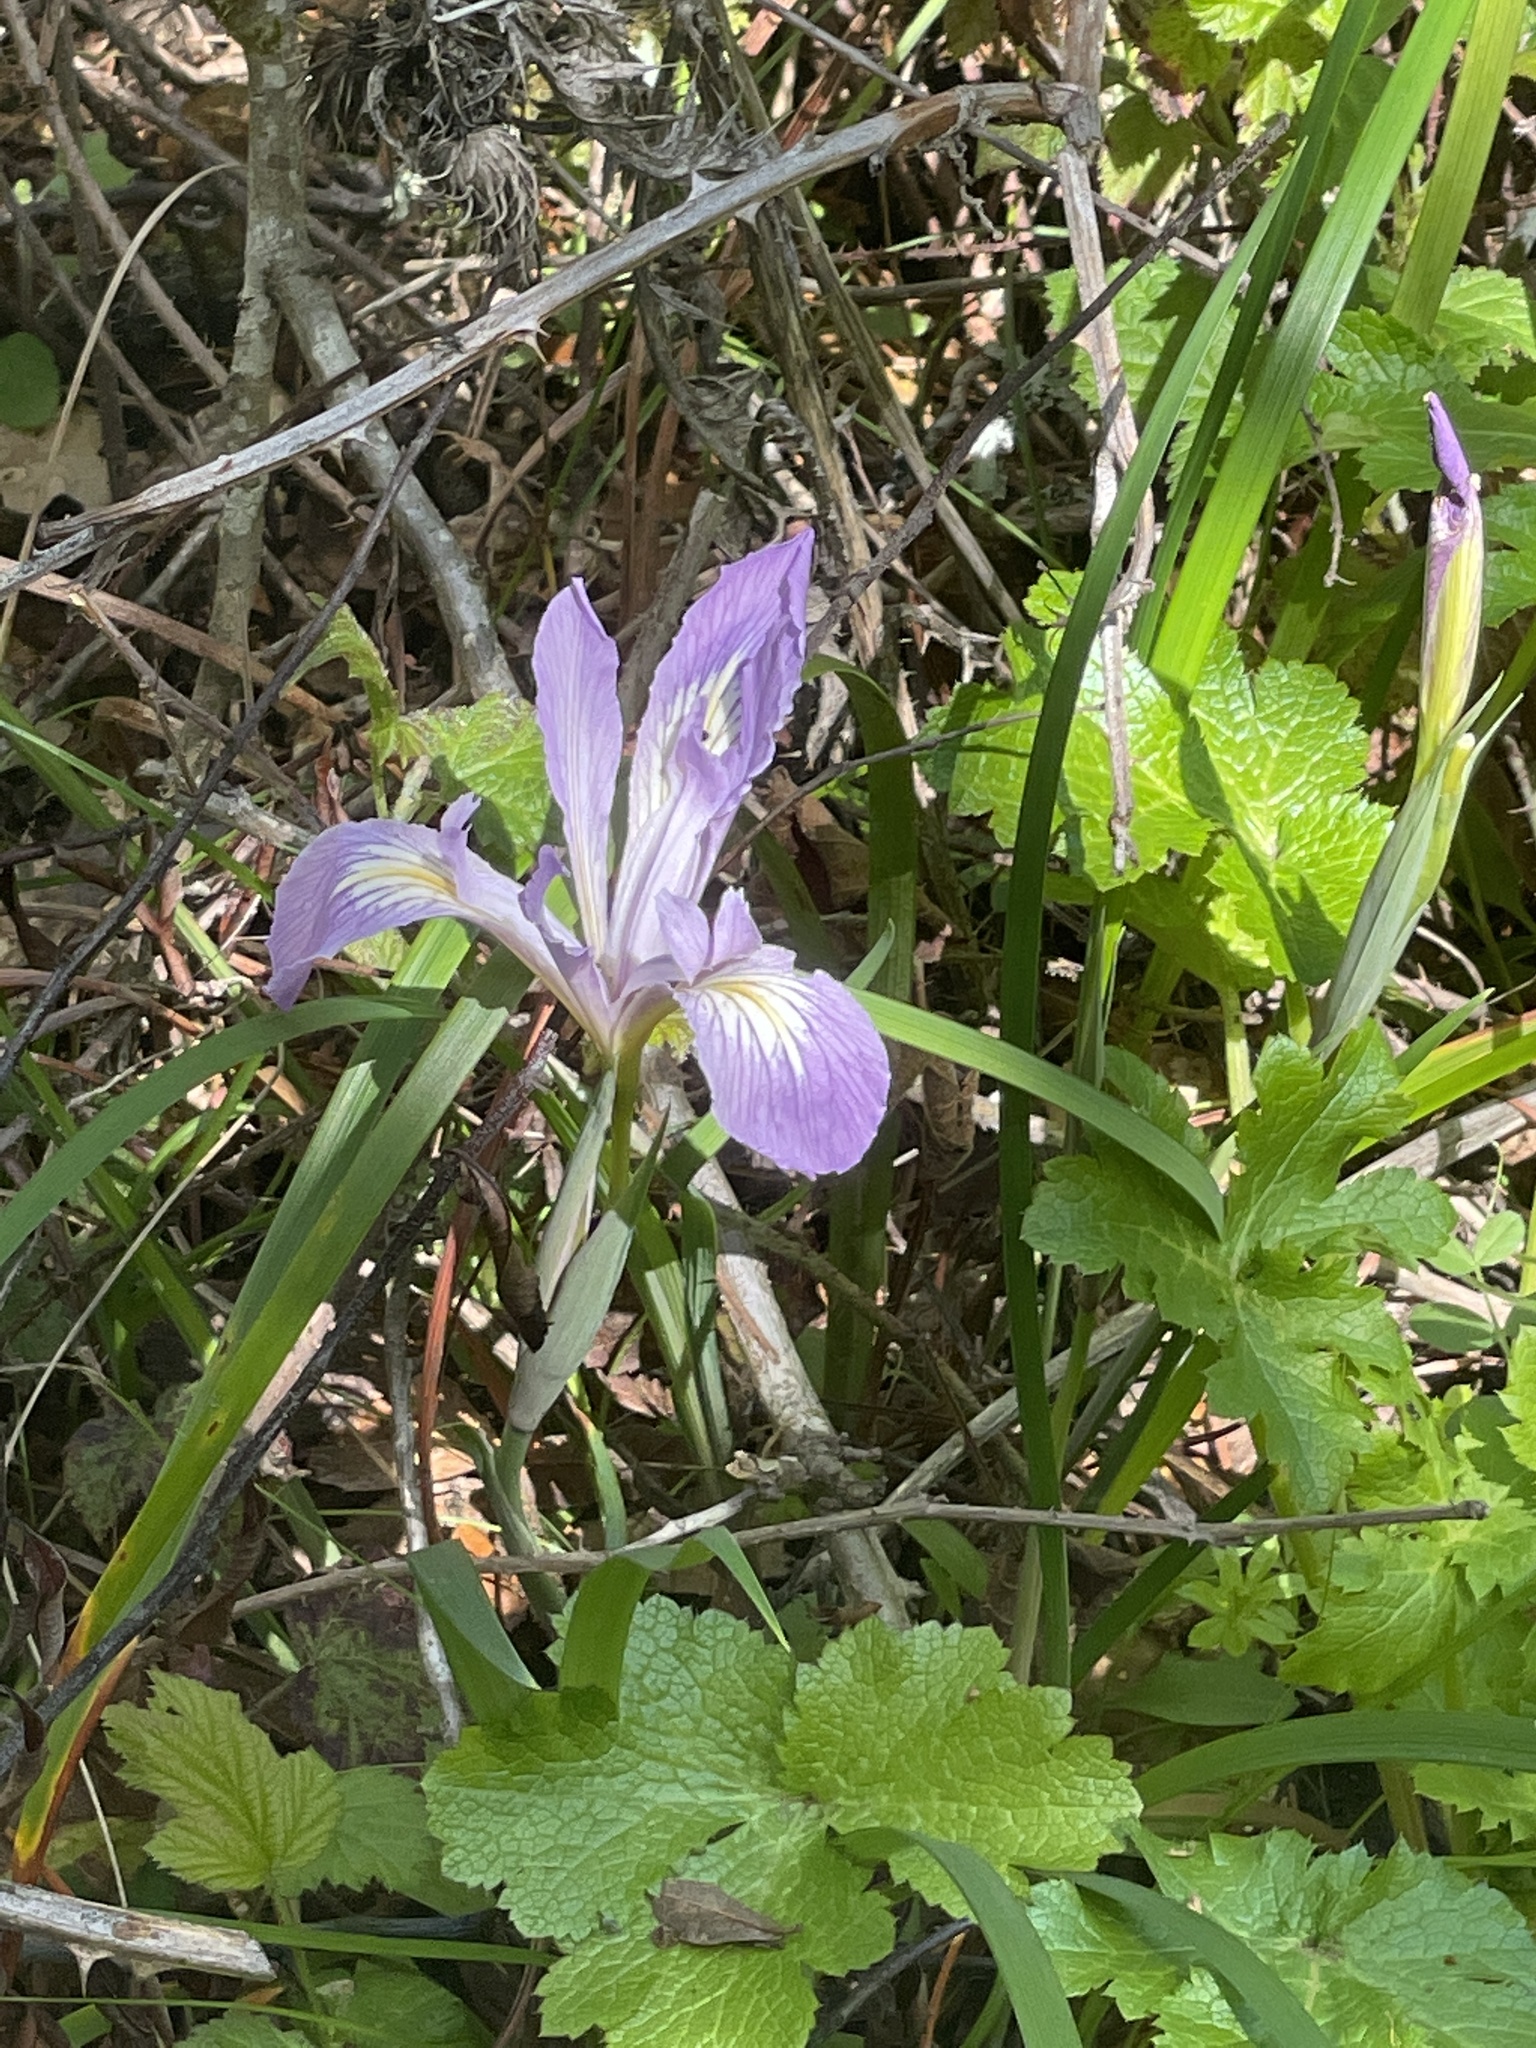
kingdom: Plantae
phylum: Tracheophyta
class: Liliopsida
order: Asparagales
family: Iridaceae
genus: Iris
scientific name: Iris macrosiphon
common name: Ground iris
